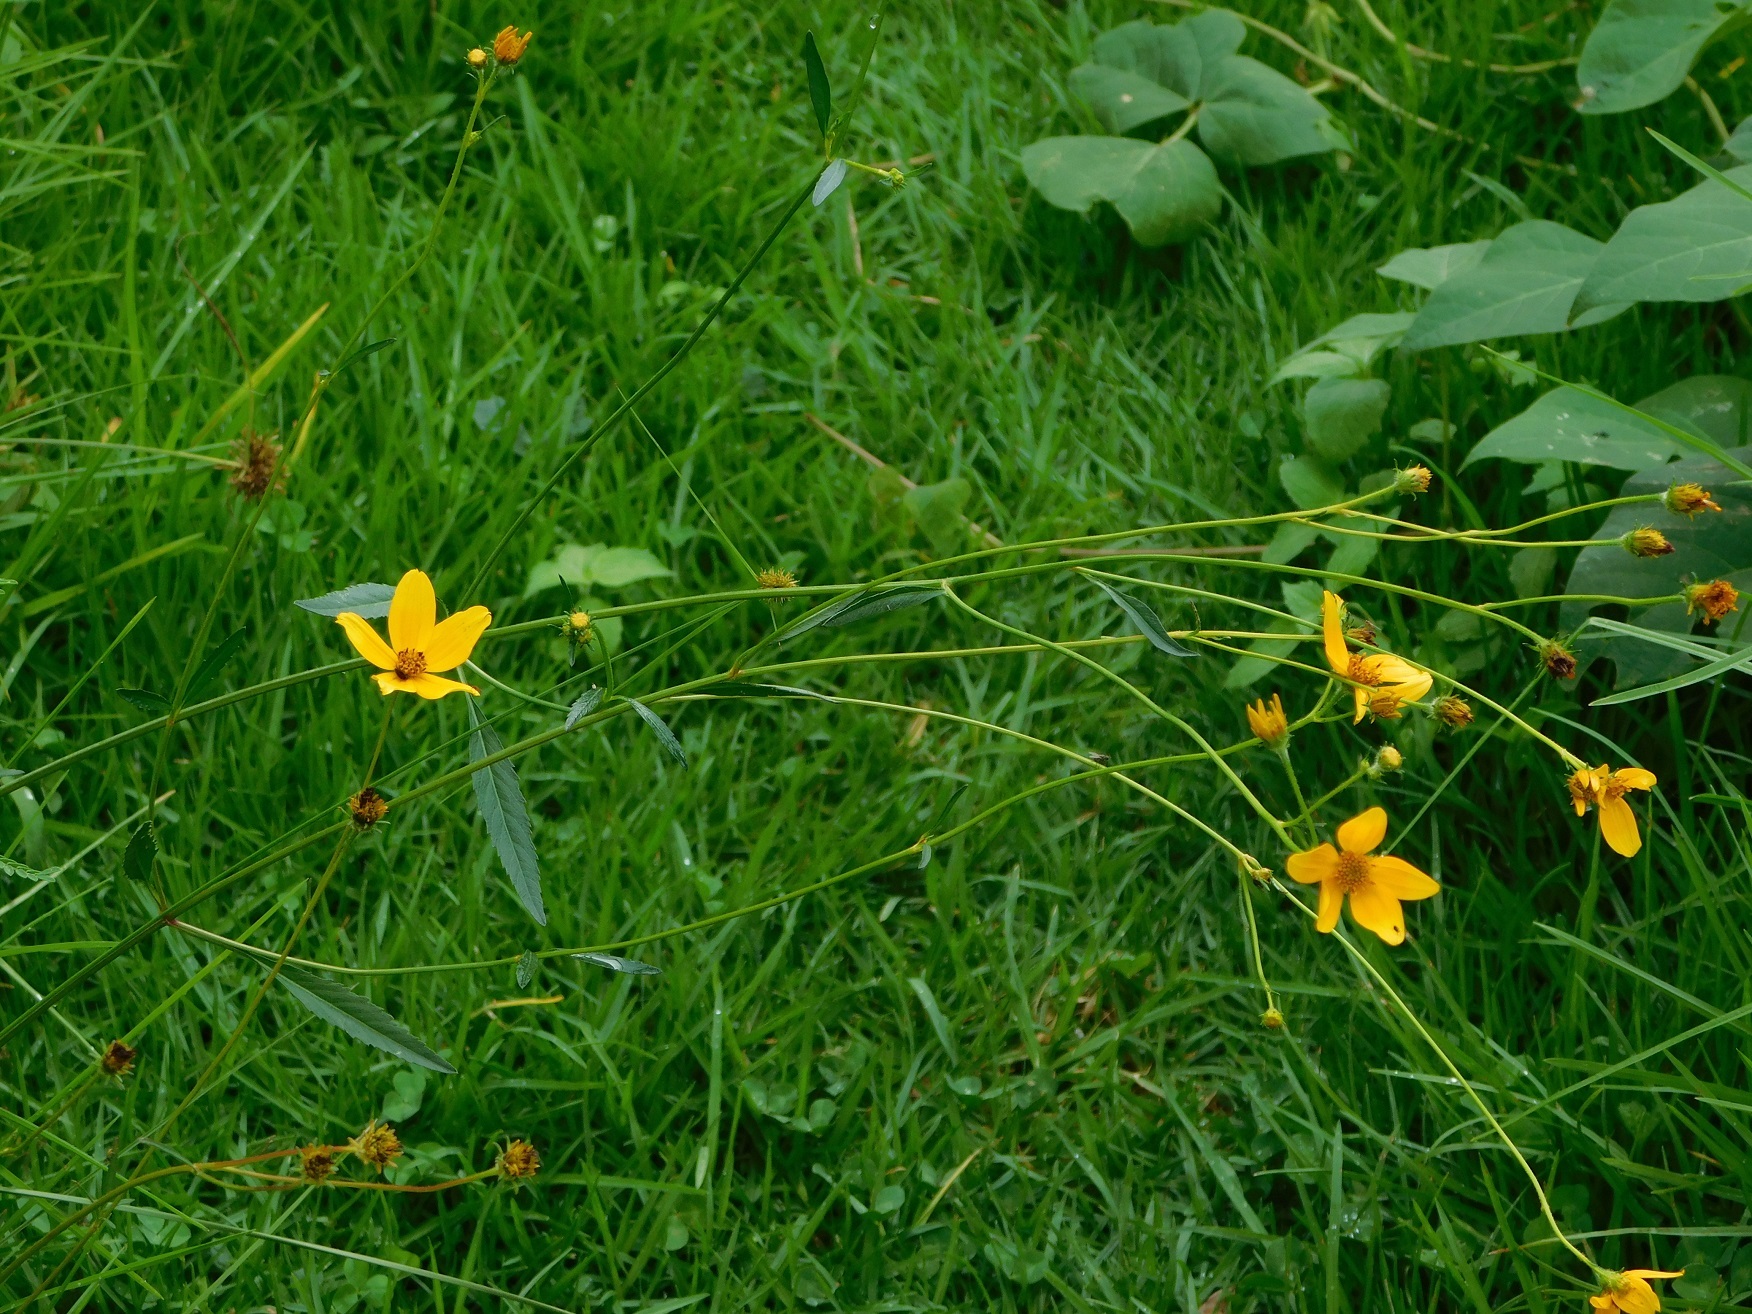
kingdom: Plantae
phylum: Tracheophyta
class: Magnoliopsida
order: Asterales
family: Asteraceae
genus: Bidens
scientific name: Bidens aurea
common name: Arizona beggar-ticks
